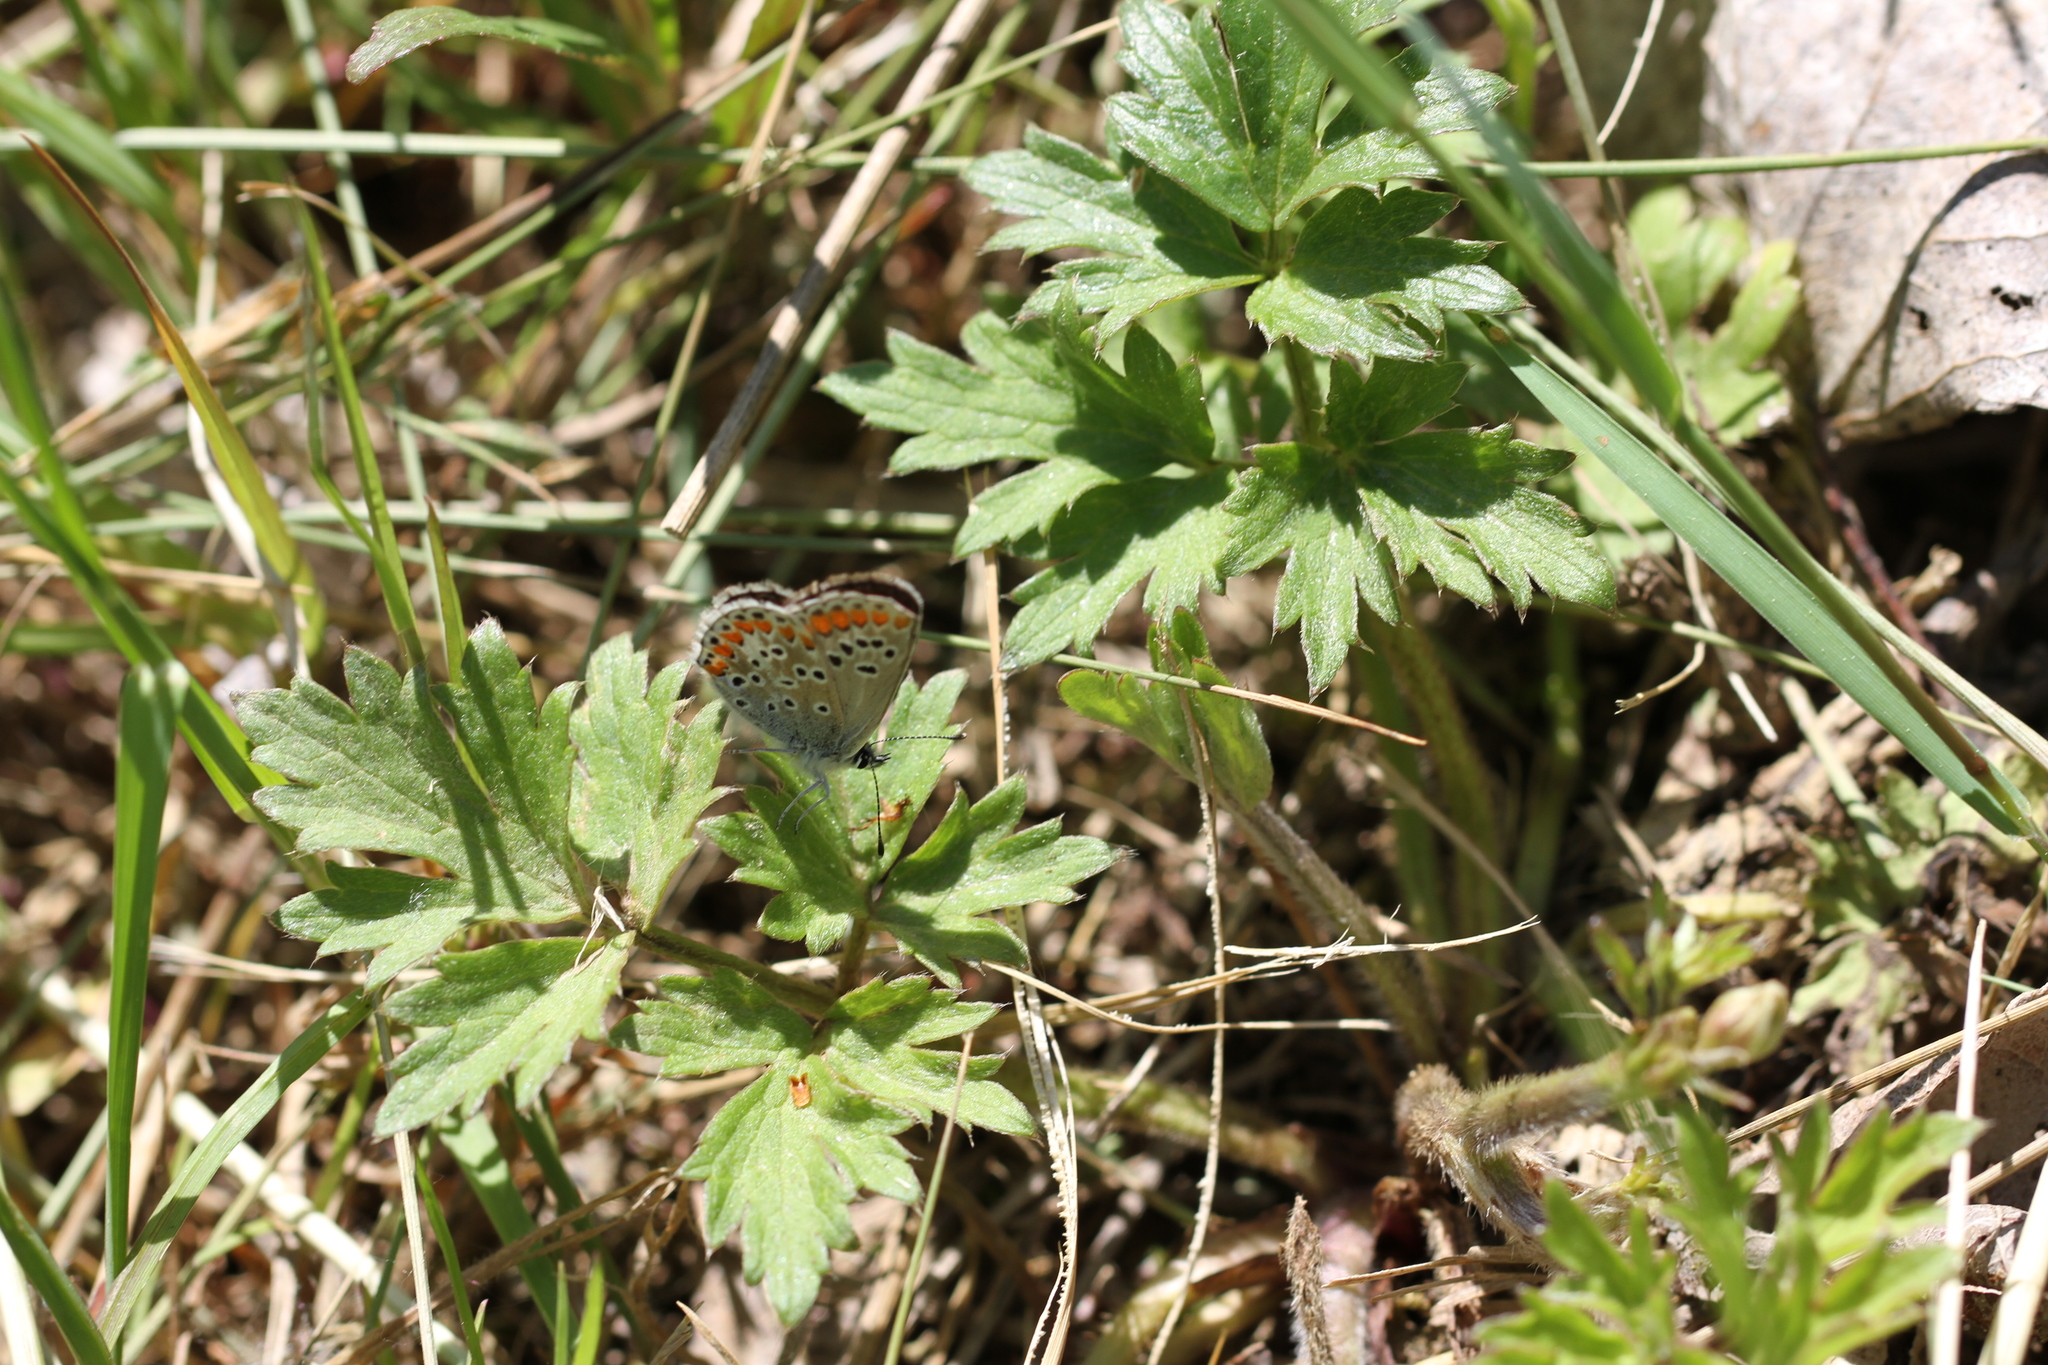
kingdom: Animalia
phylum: Arthropoda
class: Insecta
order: Lepidoptera
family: Lycaenidae
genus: Aricia
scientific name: Aricia agestis
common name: Brown argus
